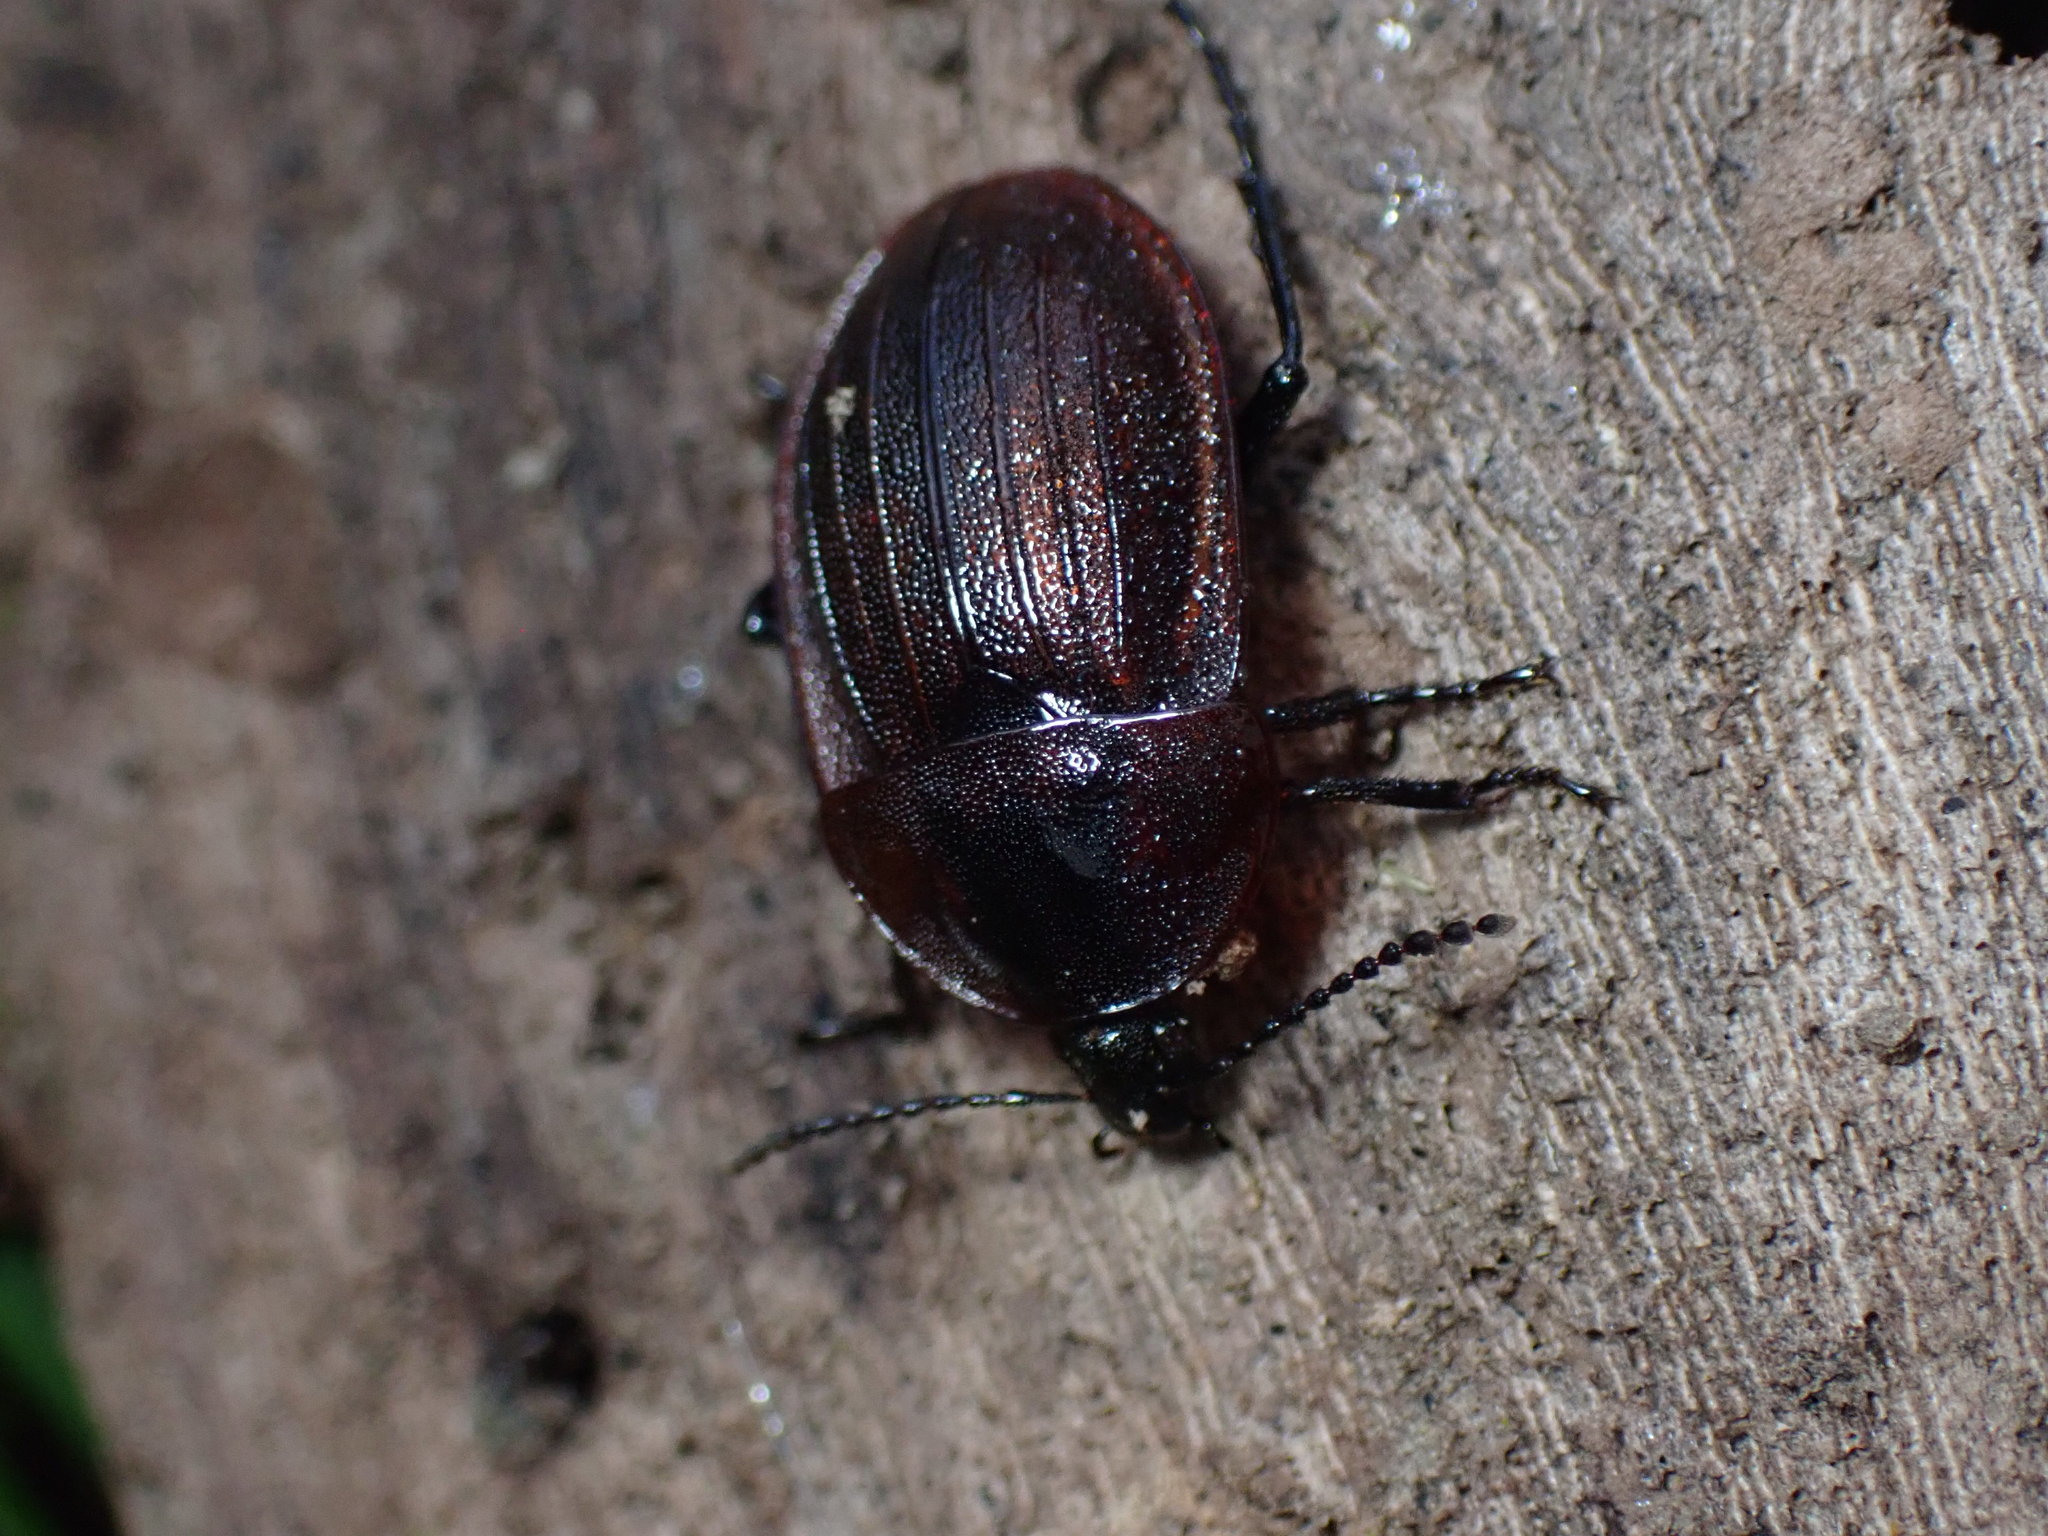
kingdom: Animalia
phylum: Arthropoda
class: Insecta
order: Coleoptera
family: Staphylinidae
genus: Silpha
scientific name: Silpha atrata
